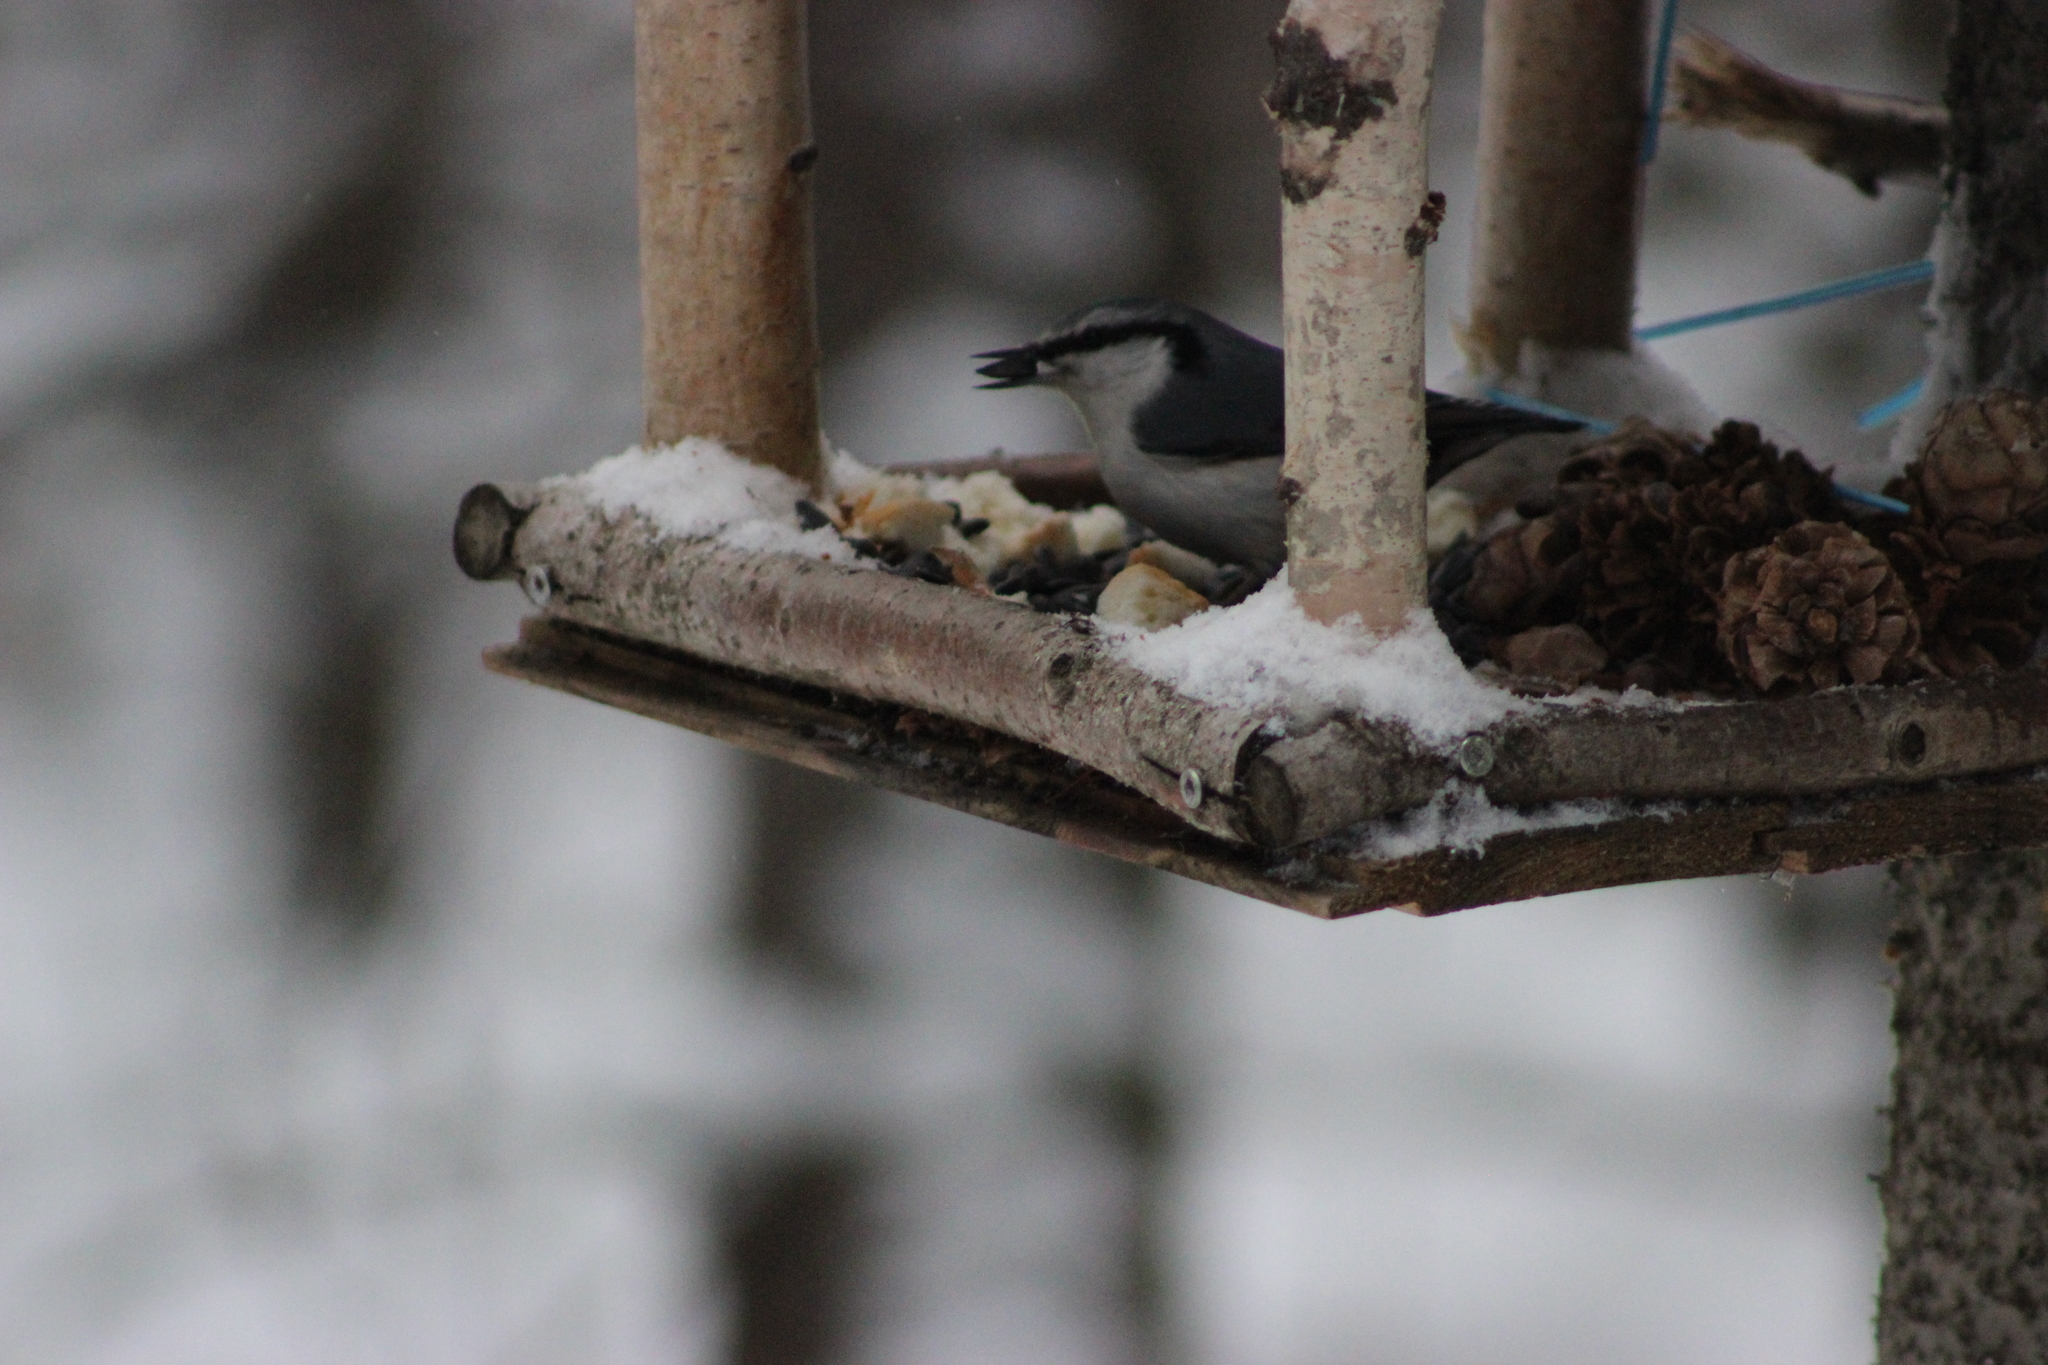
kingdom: Animalia
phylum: Chordata
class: Aves
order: Passeriformes
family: Sittidae
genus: Sitta
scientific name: Sitta europaea
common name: Eurasian nuthatch
